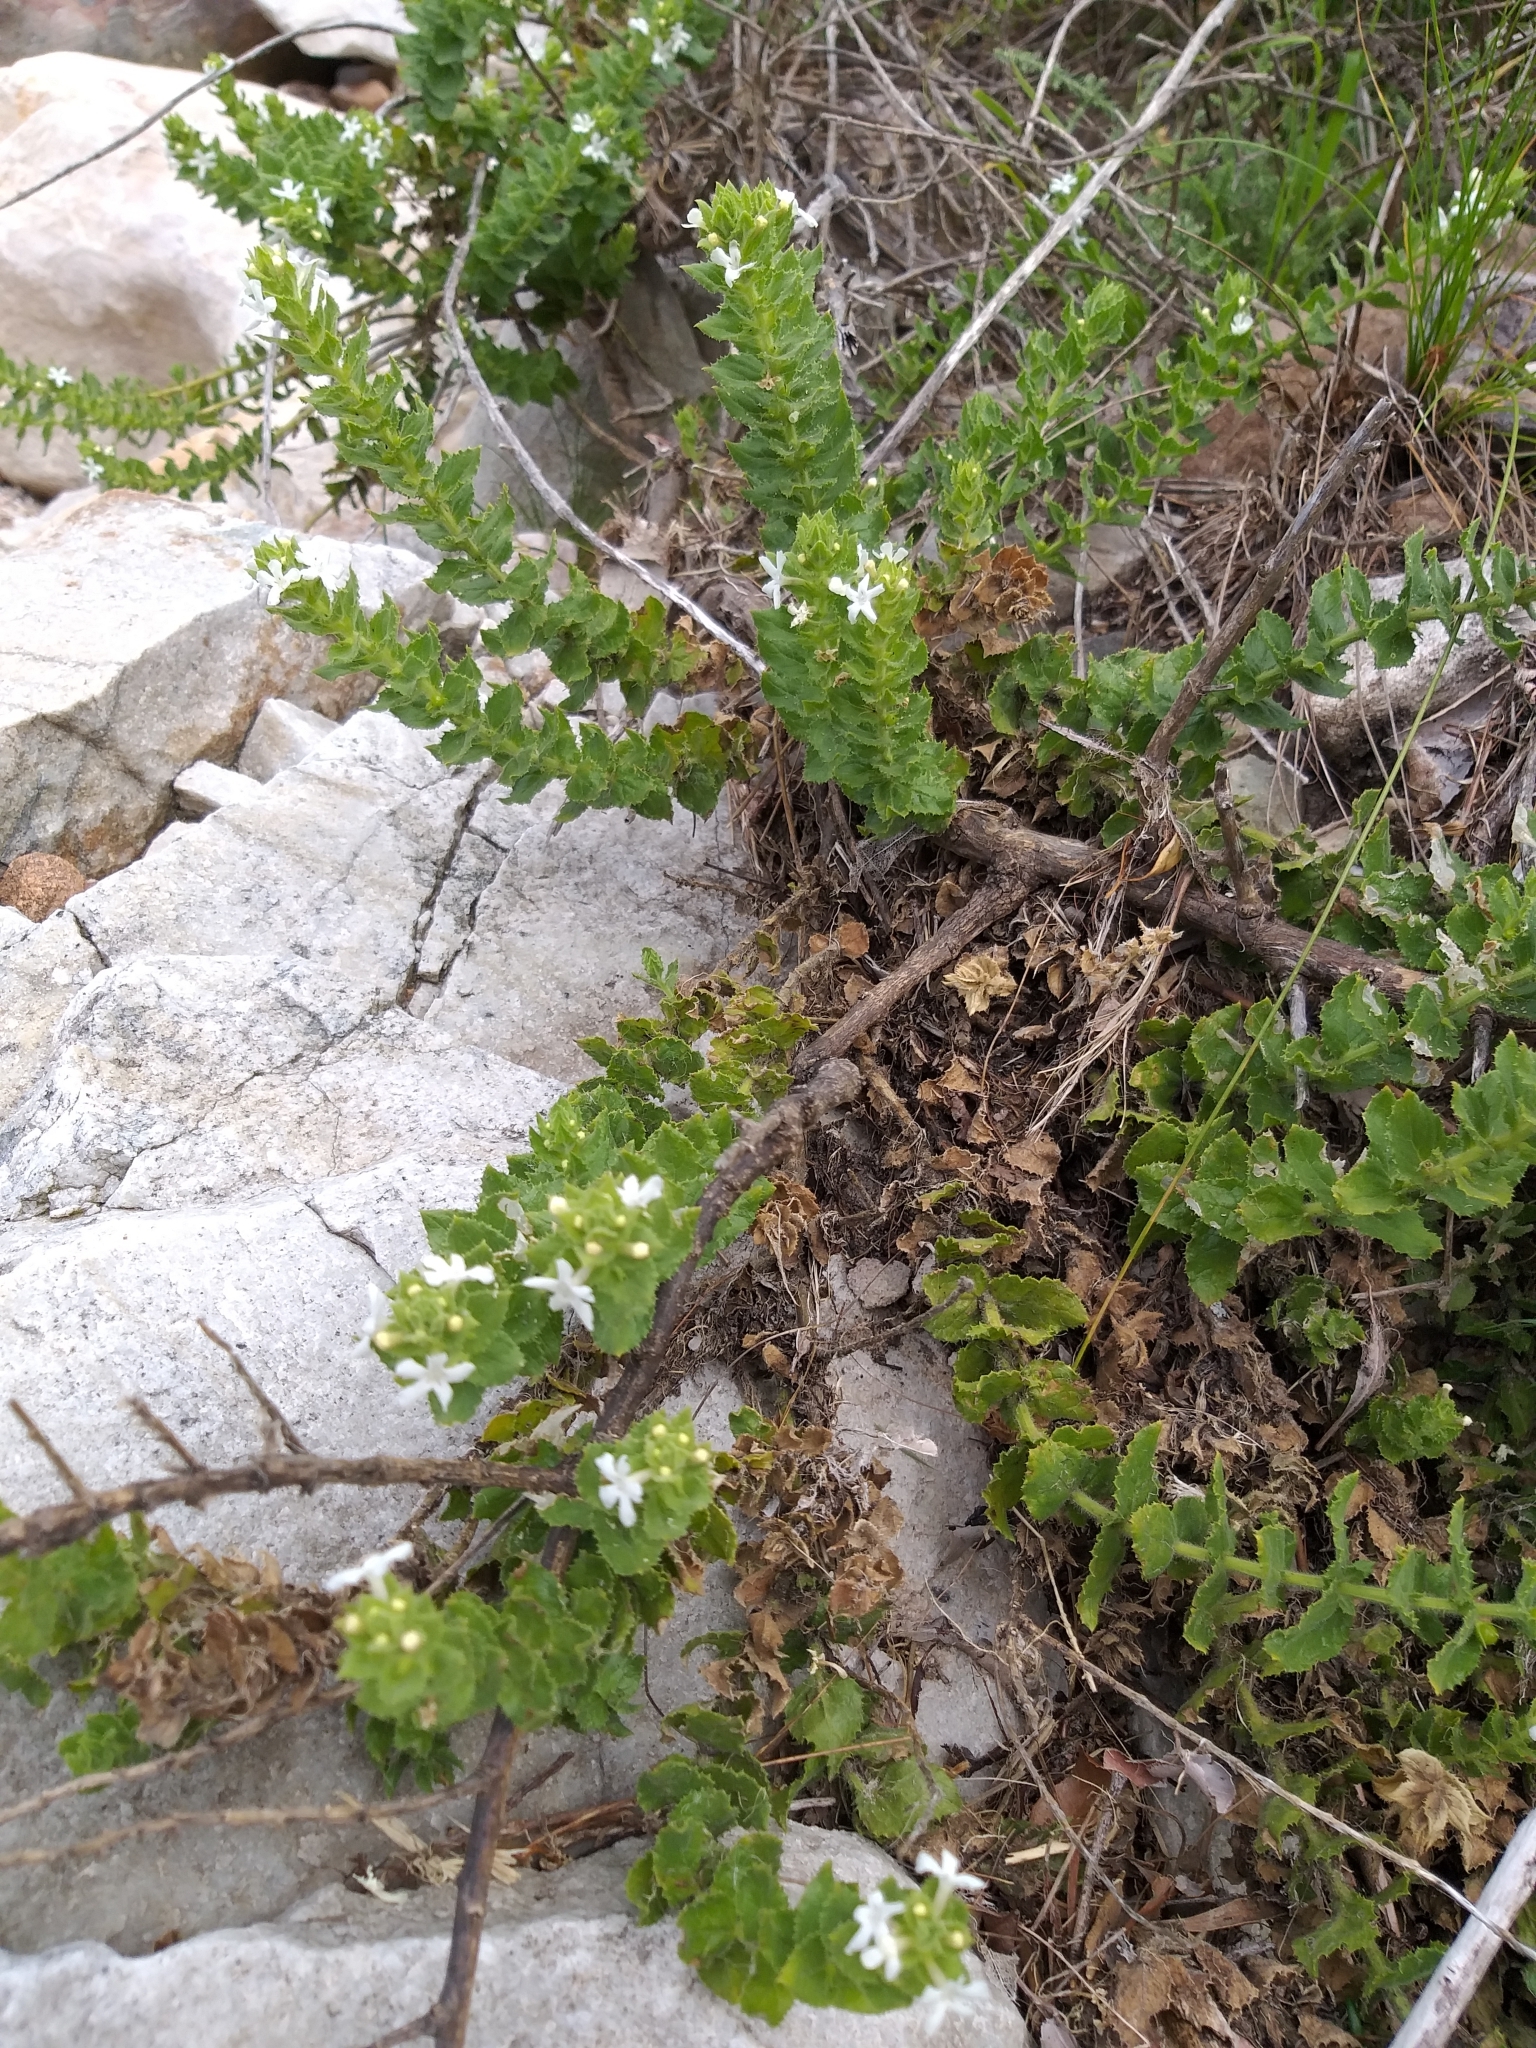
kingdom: Plantae
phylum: Tracheophyta
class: Magnoliopsida
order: Lamiales
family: Scrophulariaceae
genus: Oftia
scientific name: Oftia africana
